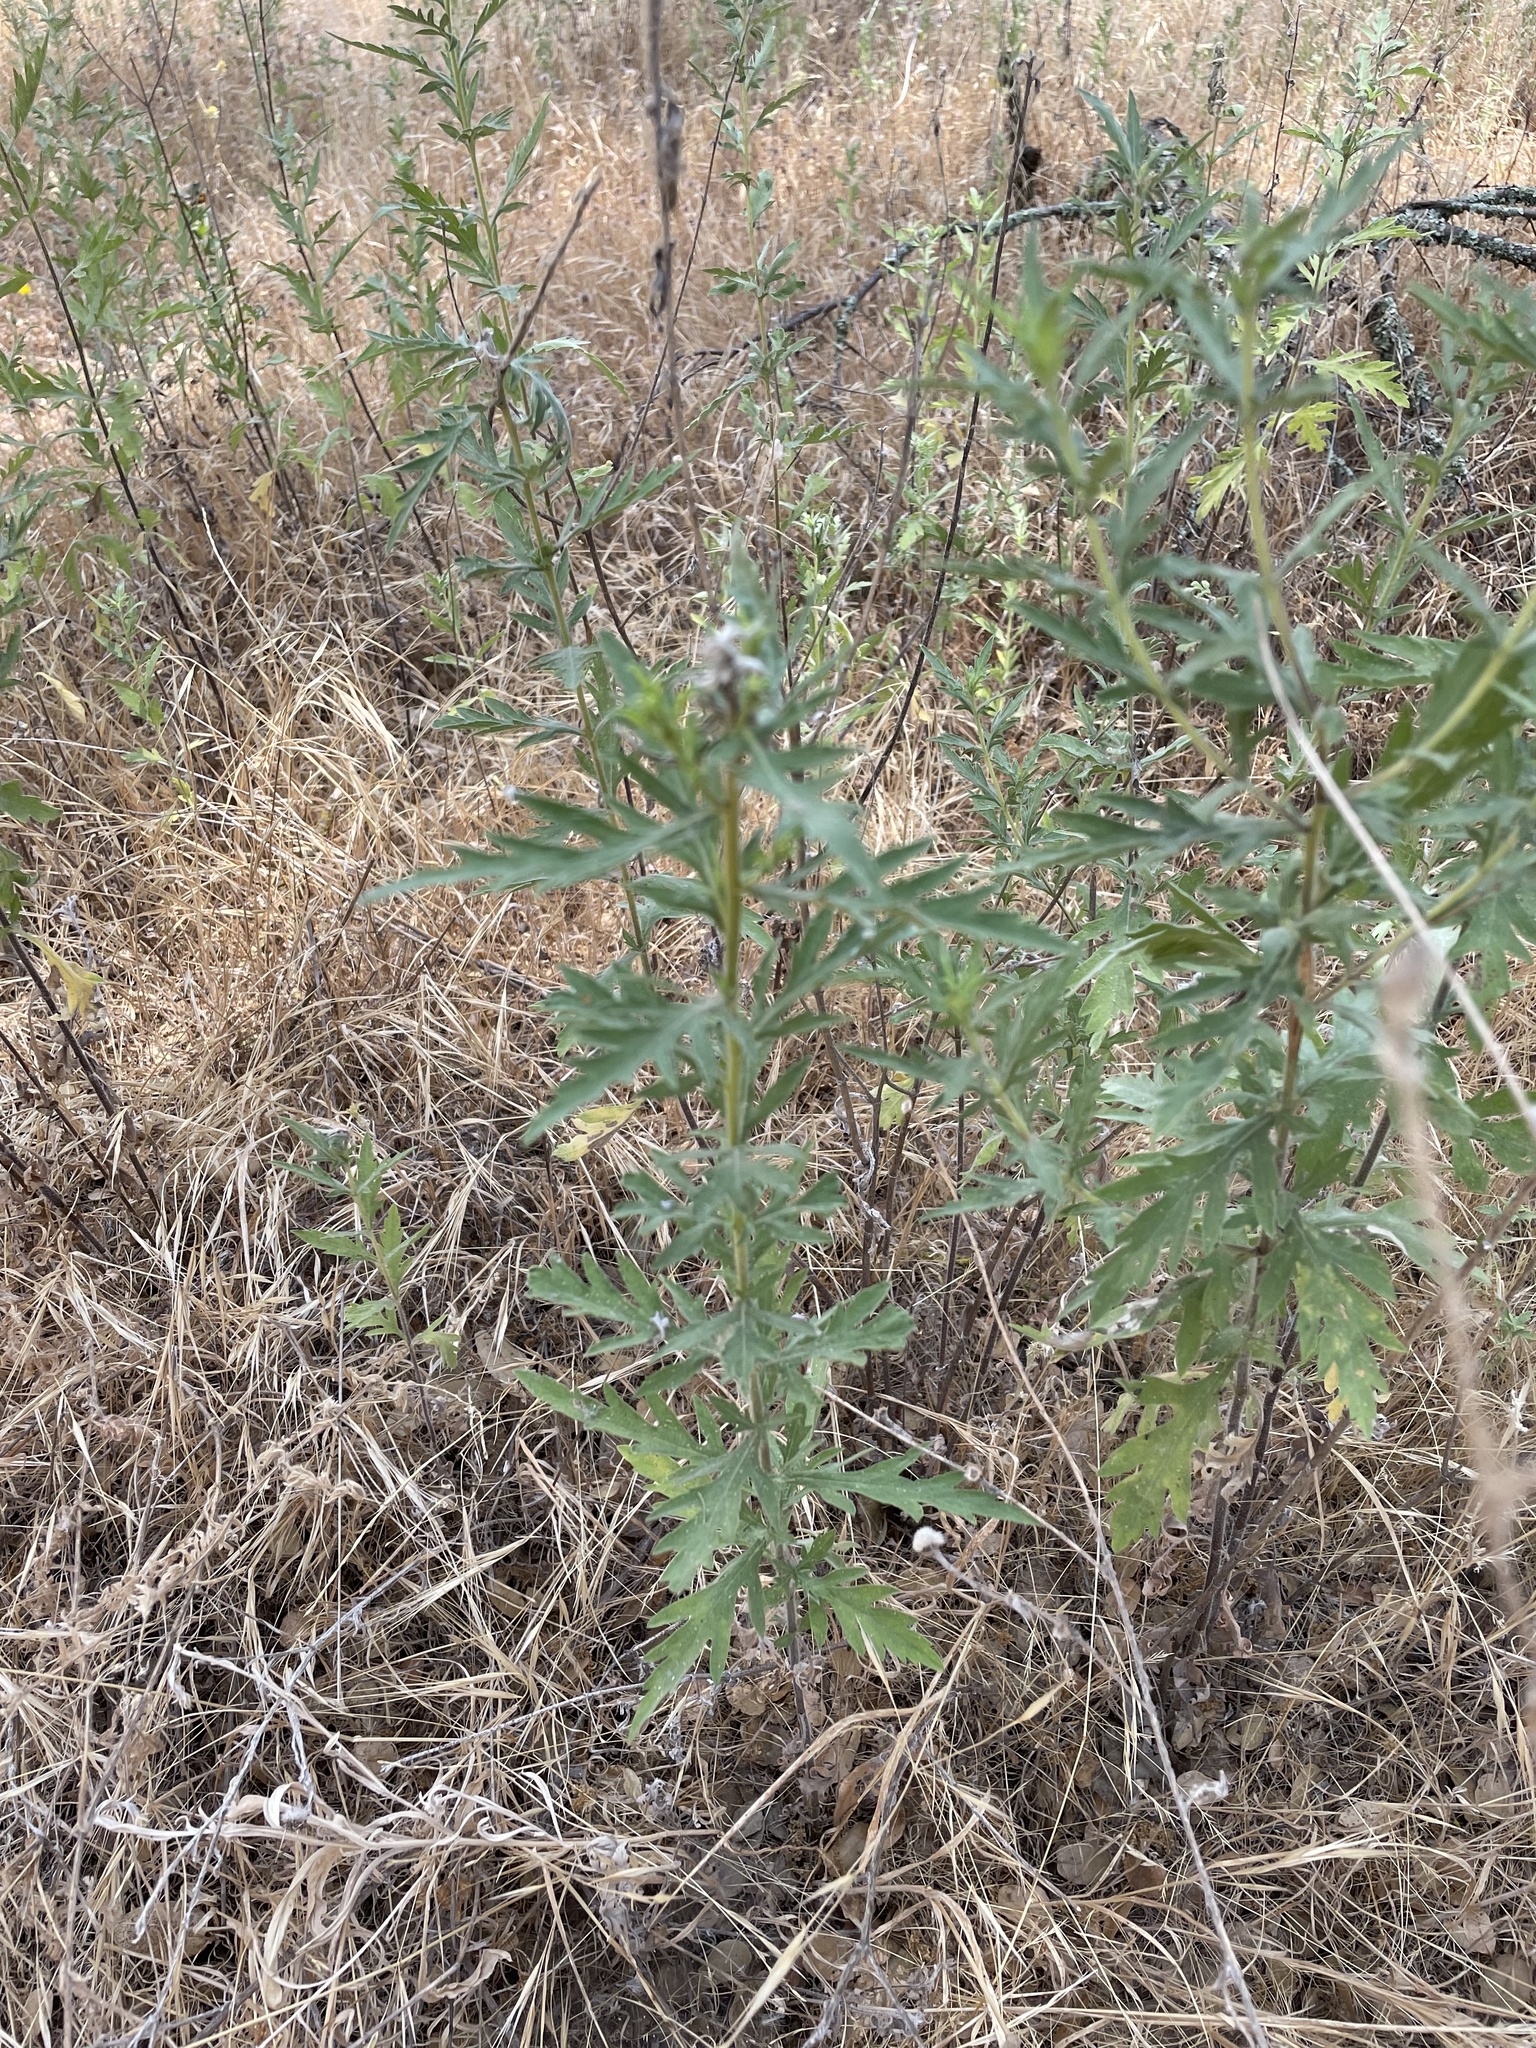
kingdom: Plantae
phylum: Tracheophyta
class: Magnoliopsida
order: Asterales
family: Asteraceae
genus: Ambrosia
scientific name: Ambrosia psilostachya
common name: Perennial ragweed
